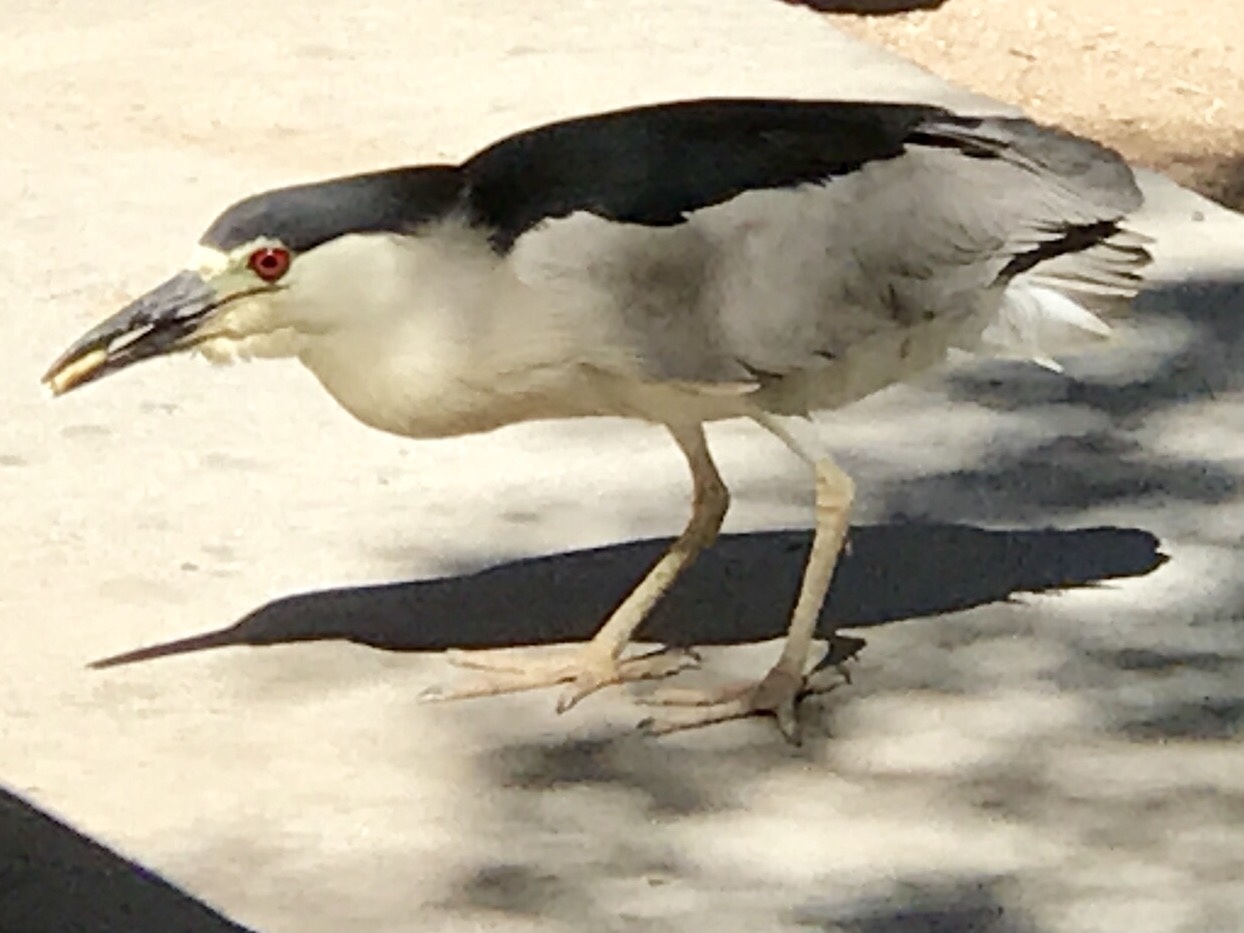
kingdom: Animalia
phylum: Chordata
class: Aves
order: Pelecaniformes
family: Ardeidae
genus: Nycticorax
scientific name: Nycticorax nycticorax
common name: Black-crowned night heron
